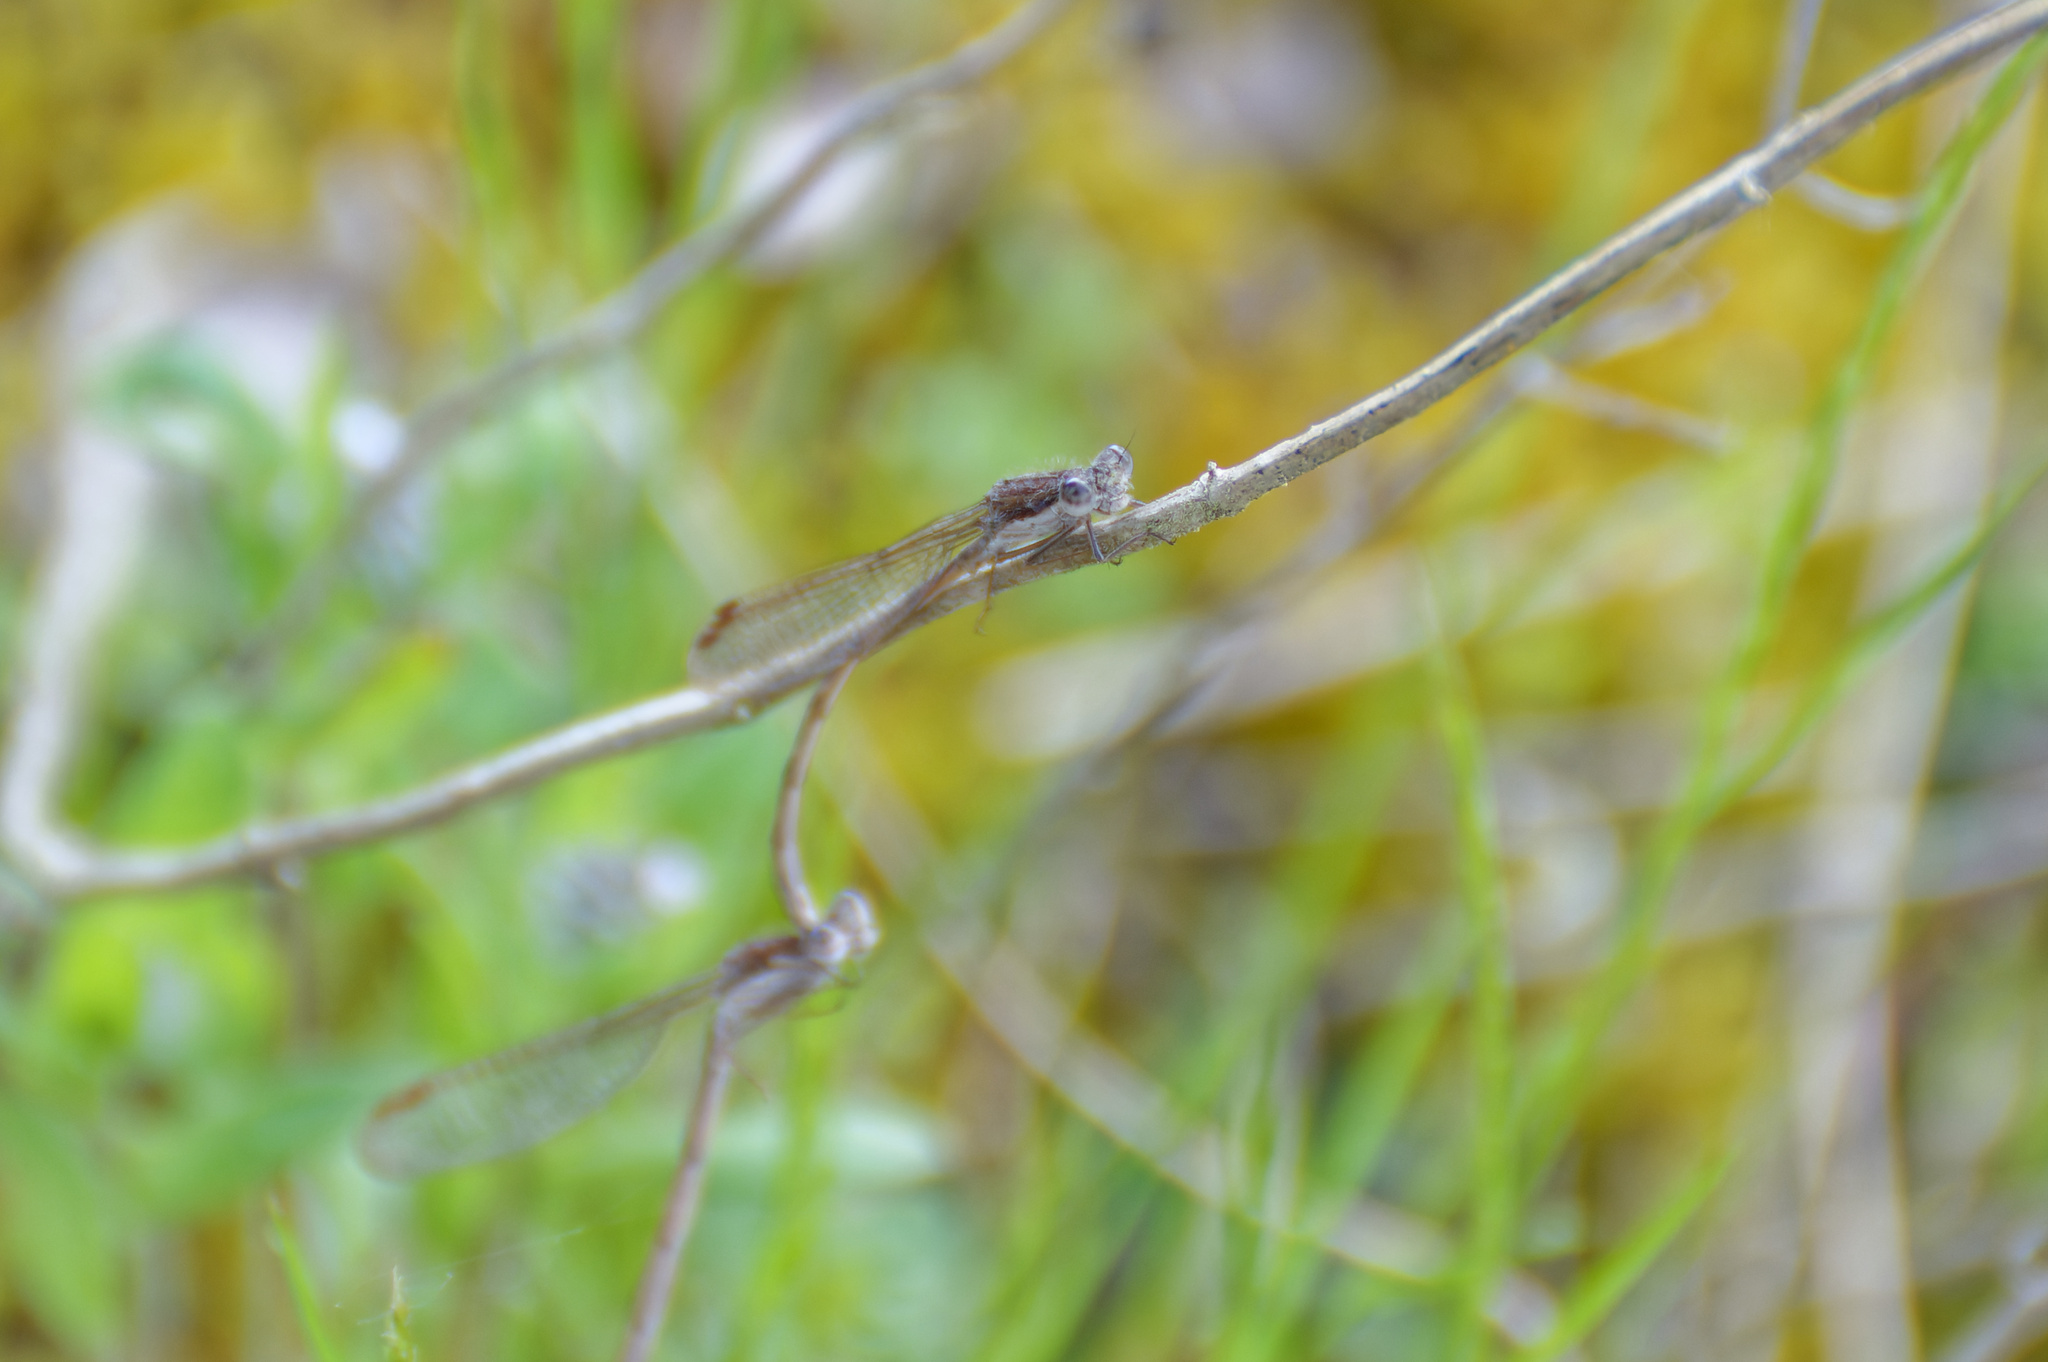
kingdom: Animalia
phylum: Arthropoda
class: Insecta
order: Odonata
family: Lestidae
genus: Sympecma
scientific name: Sympecma fusca
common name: Common winter damsel
